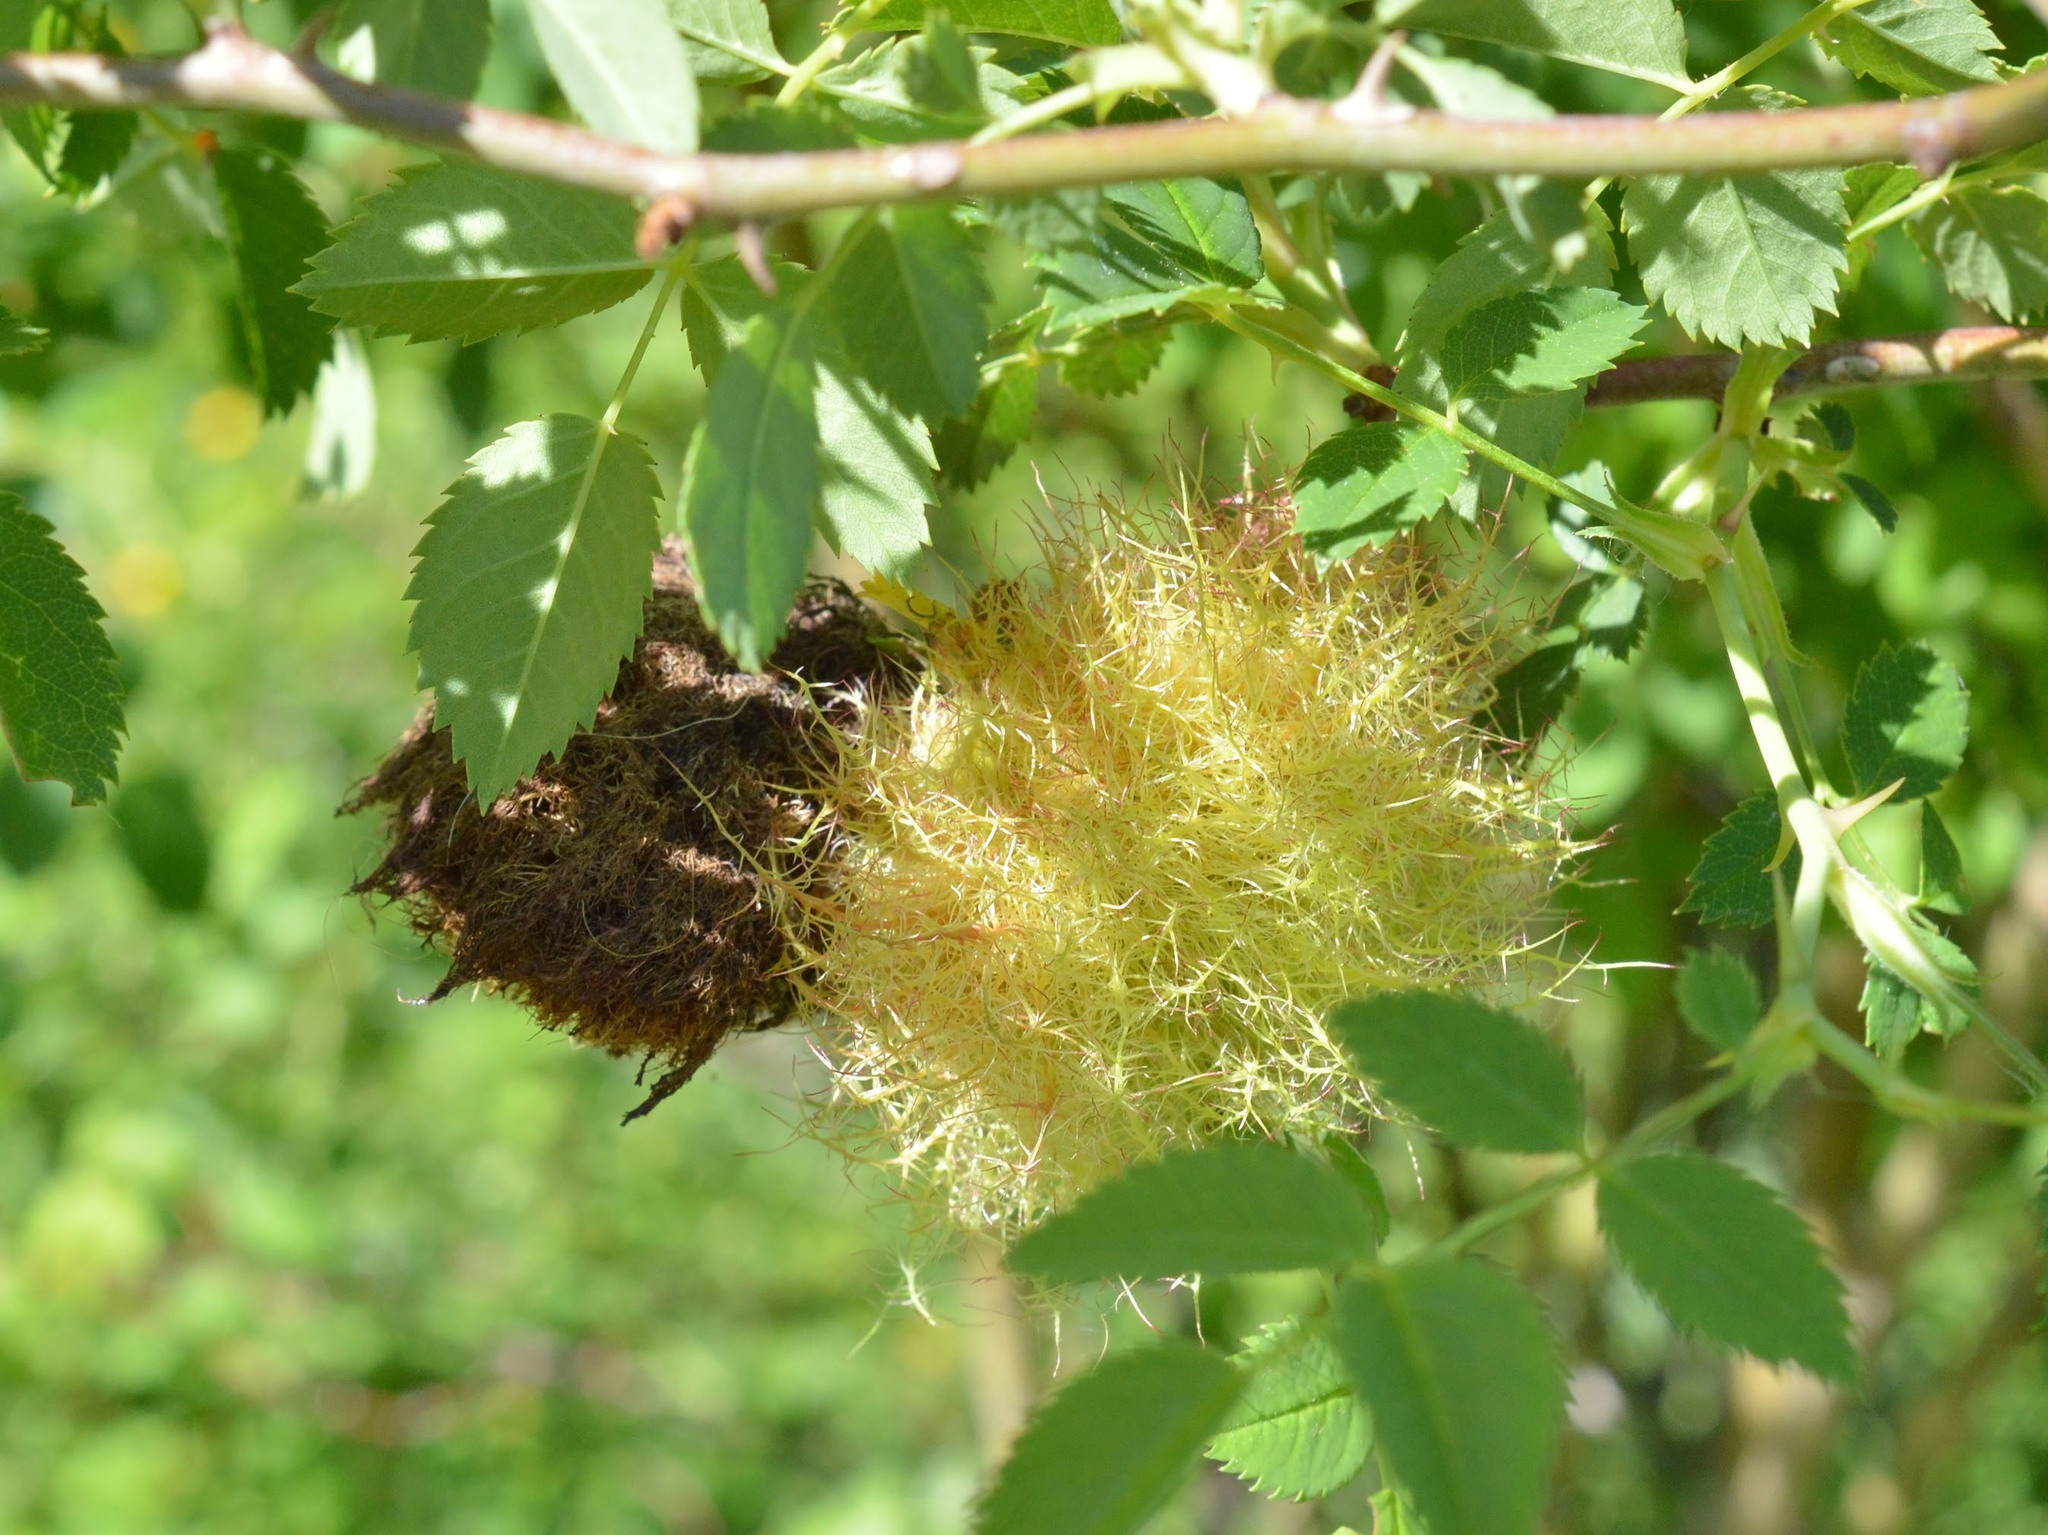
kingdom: Animalia
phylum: Arthropoda
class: Insecta
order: Hymenoptera
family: Cynipidae
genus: Diplolepis
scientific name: Diplolepis rosae
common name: Bedeguar gall
